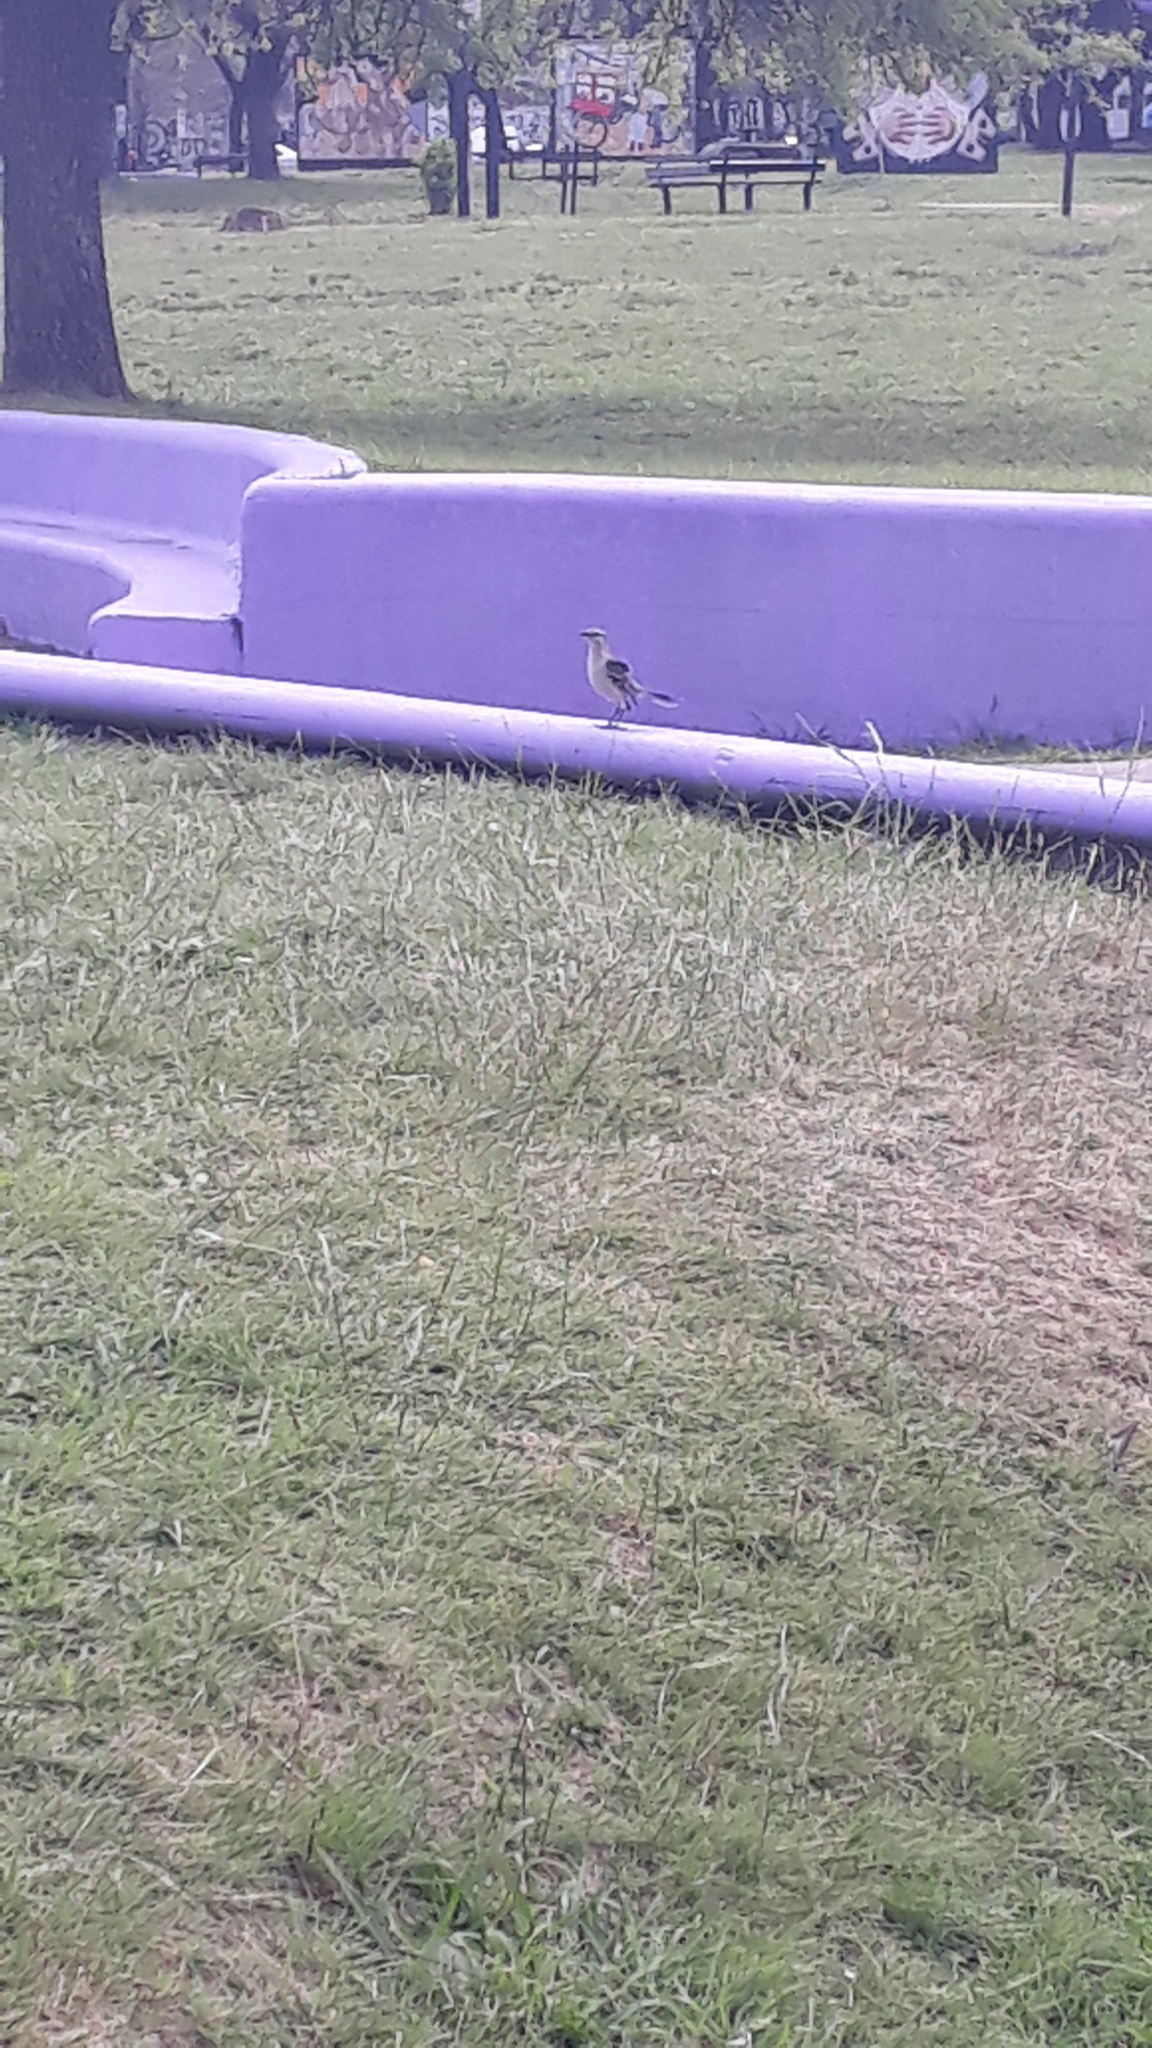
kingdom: Animalia
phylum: Chordata
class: Aves
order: Passeriformes
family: Mimidae
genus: Mimus
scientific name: Mimus saturninus
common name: Chalk-browed mockingbird
